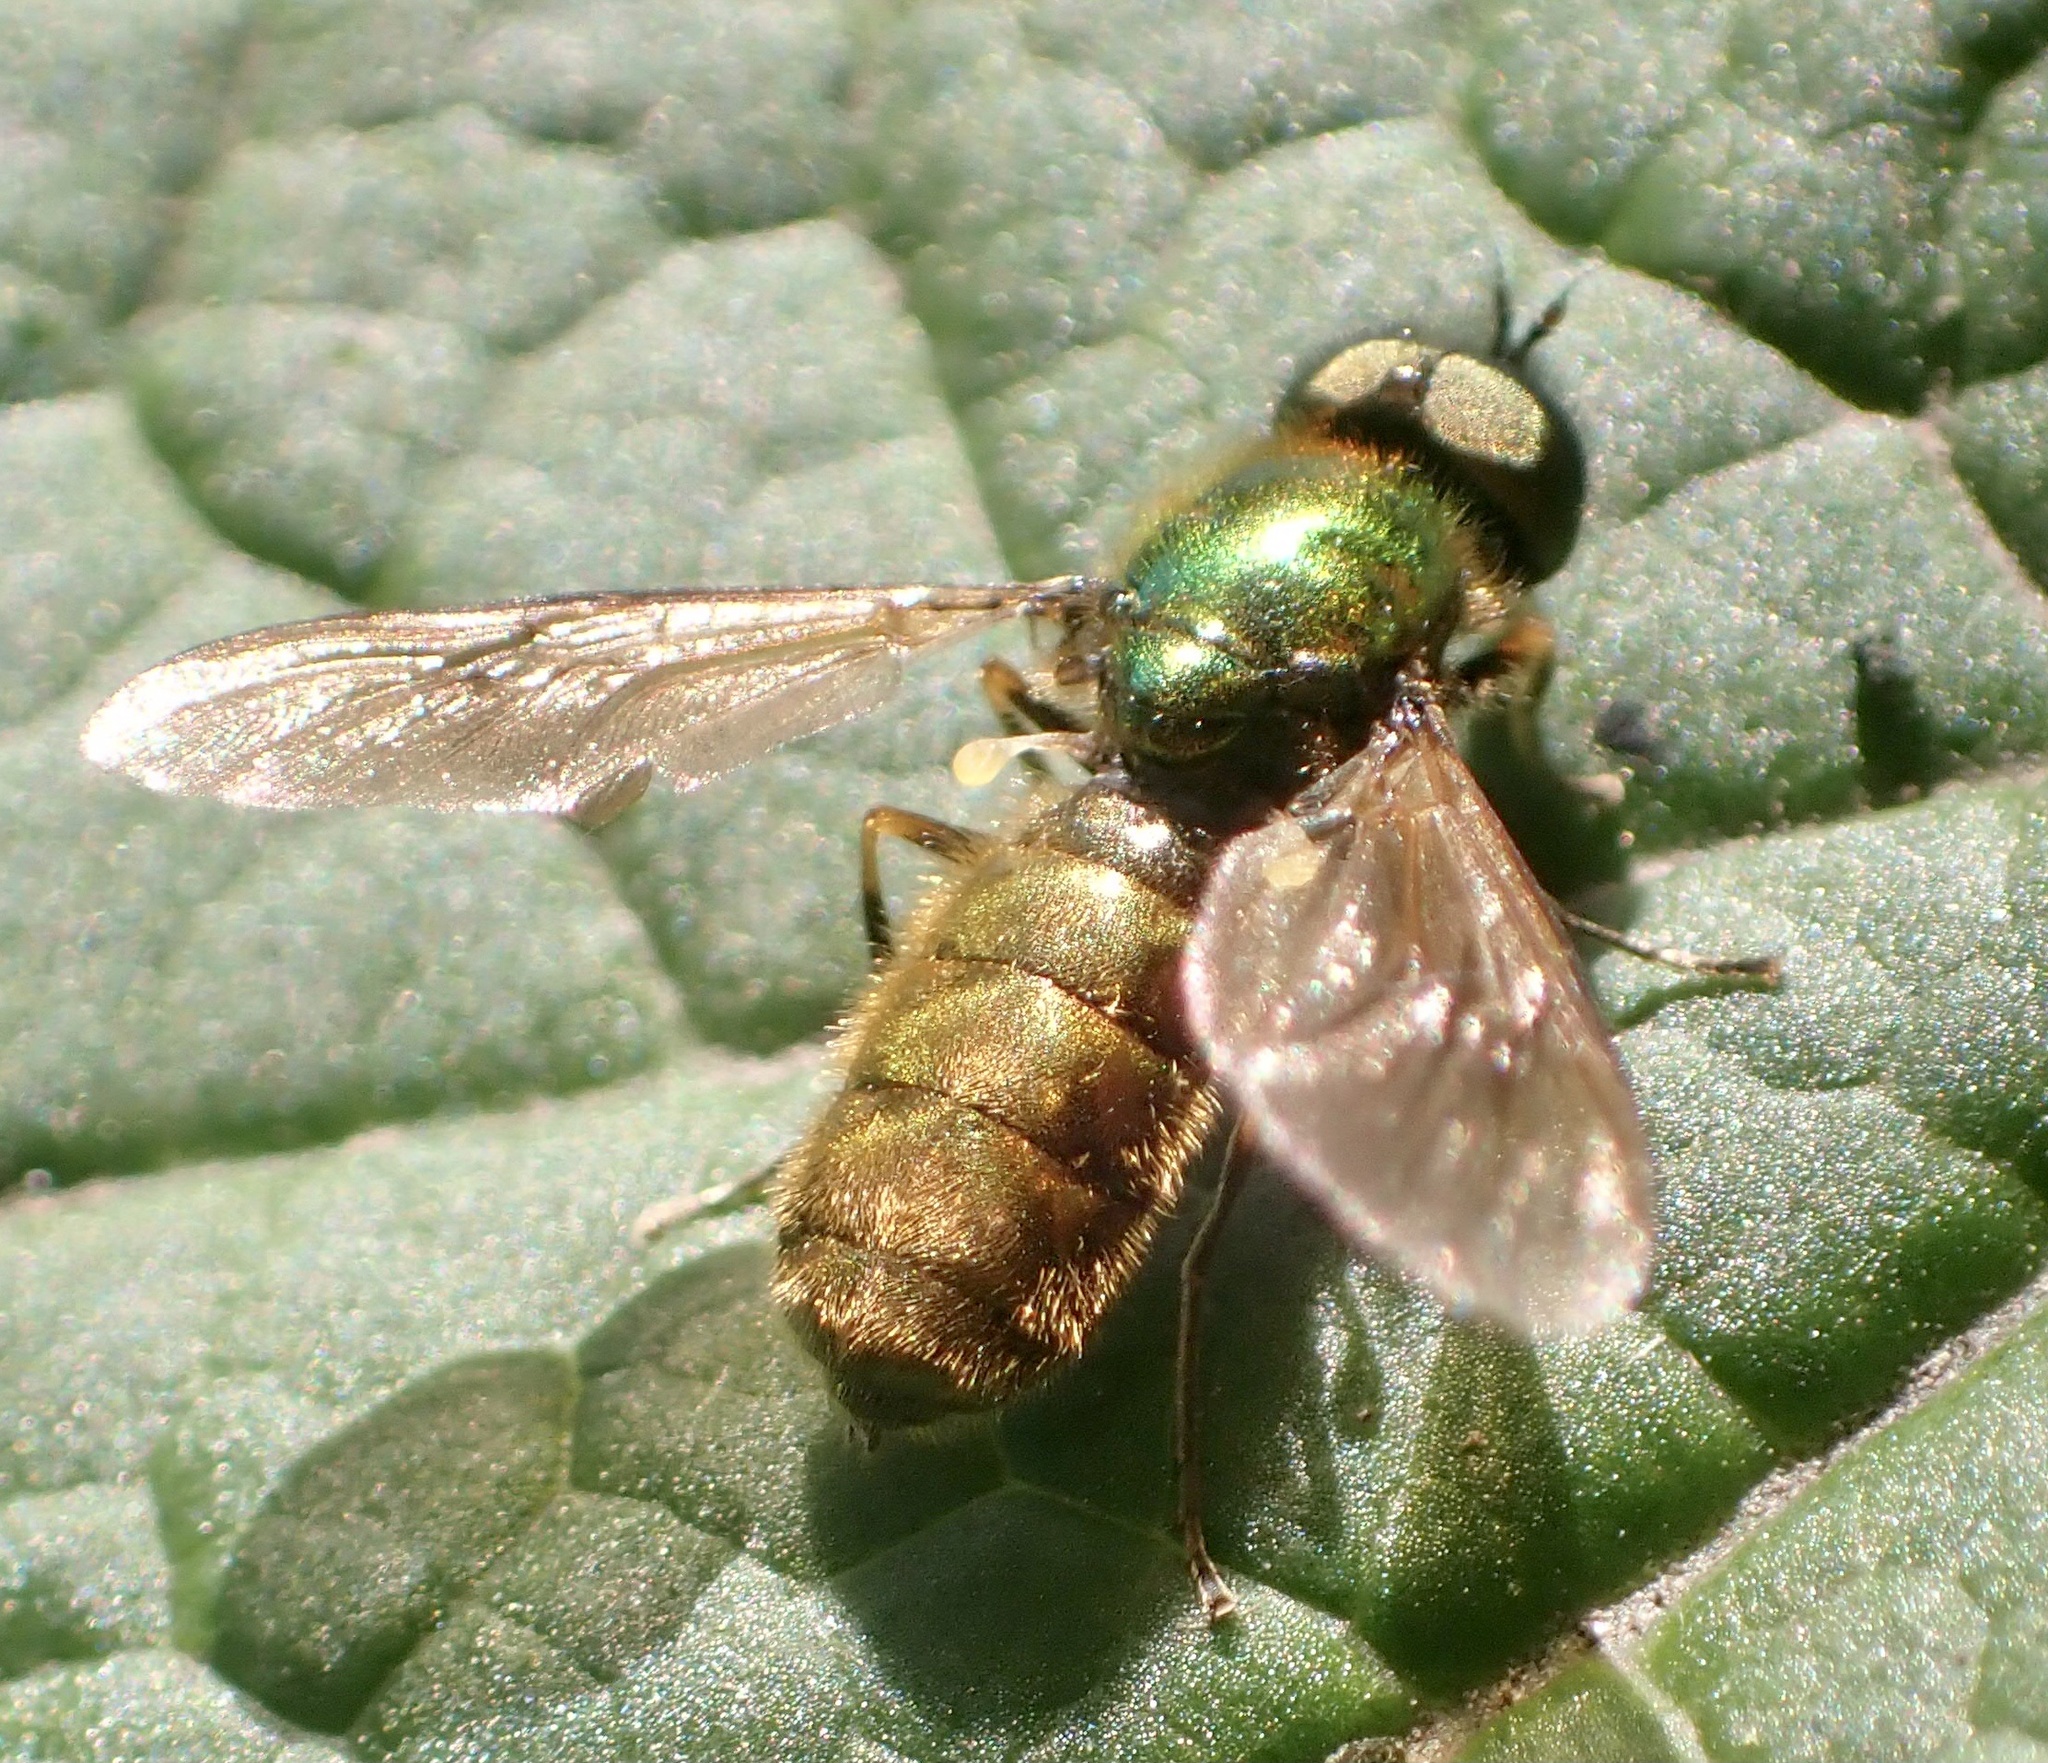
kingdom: Animalia
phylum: Arthropoda
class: Insecta
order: Diptera
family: Stratiomyidae
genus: Chloromyia
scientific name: Chloromyia formosa
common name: Soldier fly
